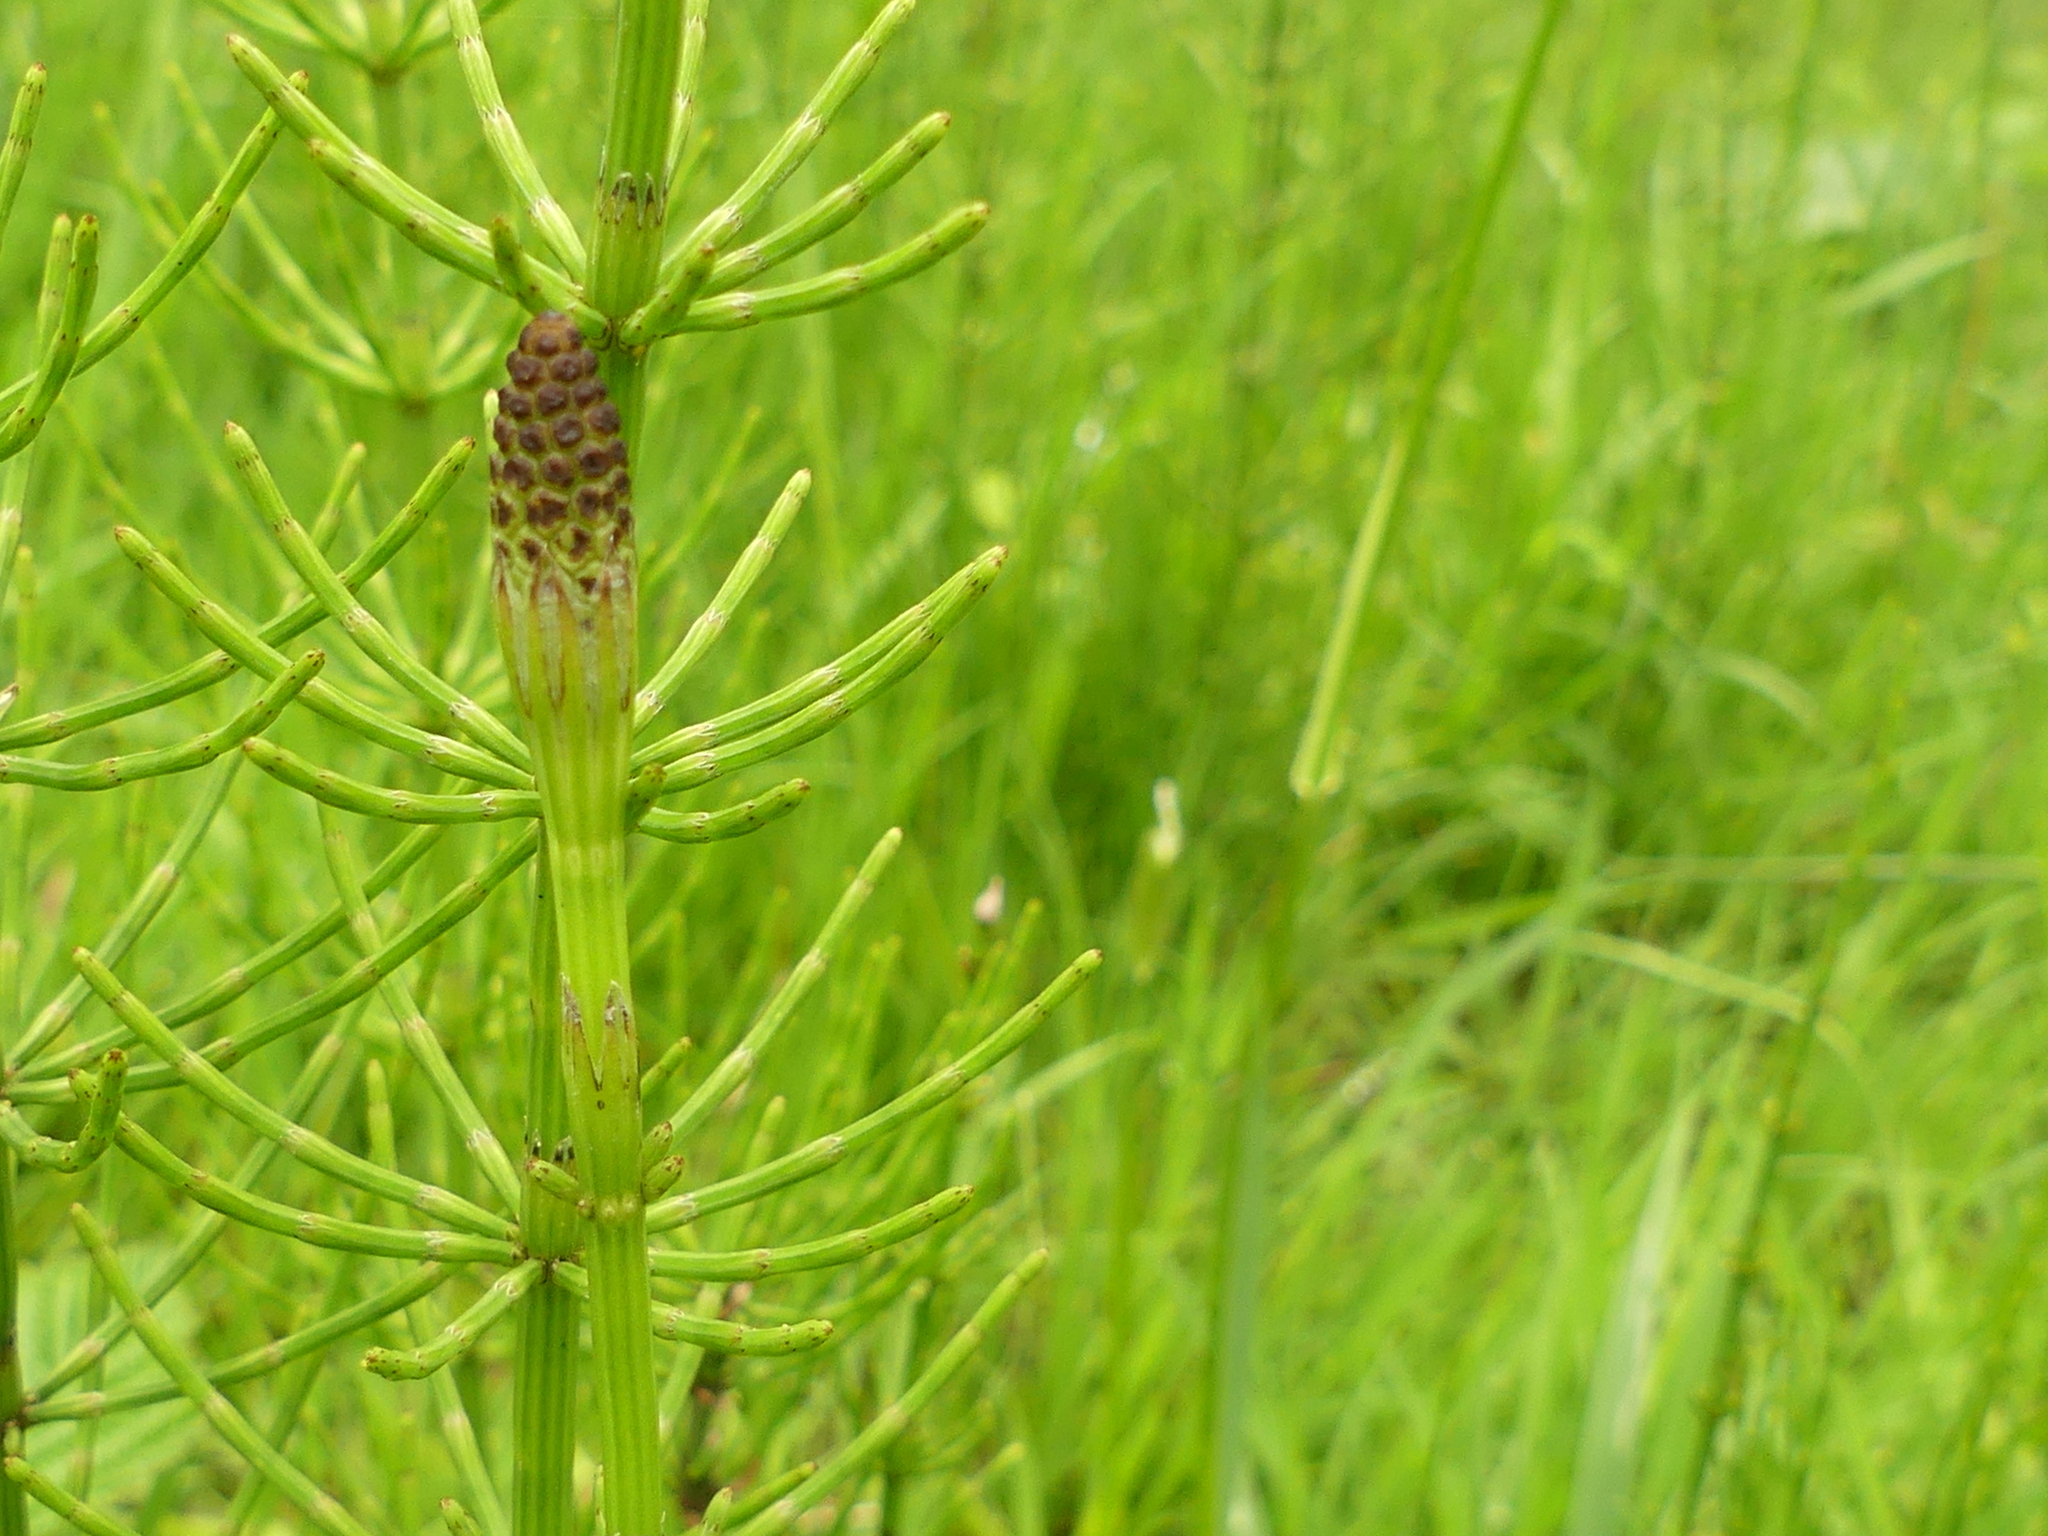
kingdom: Plantae
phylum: Tracheophyta
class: Polypodiopsida
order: Equisetales
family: Equisetaceae
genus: Equisetum
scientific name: Equisetum palustre
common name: Marsh horsetail
